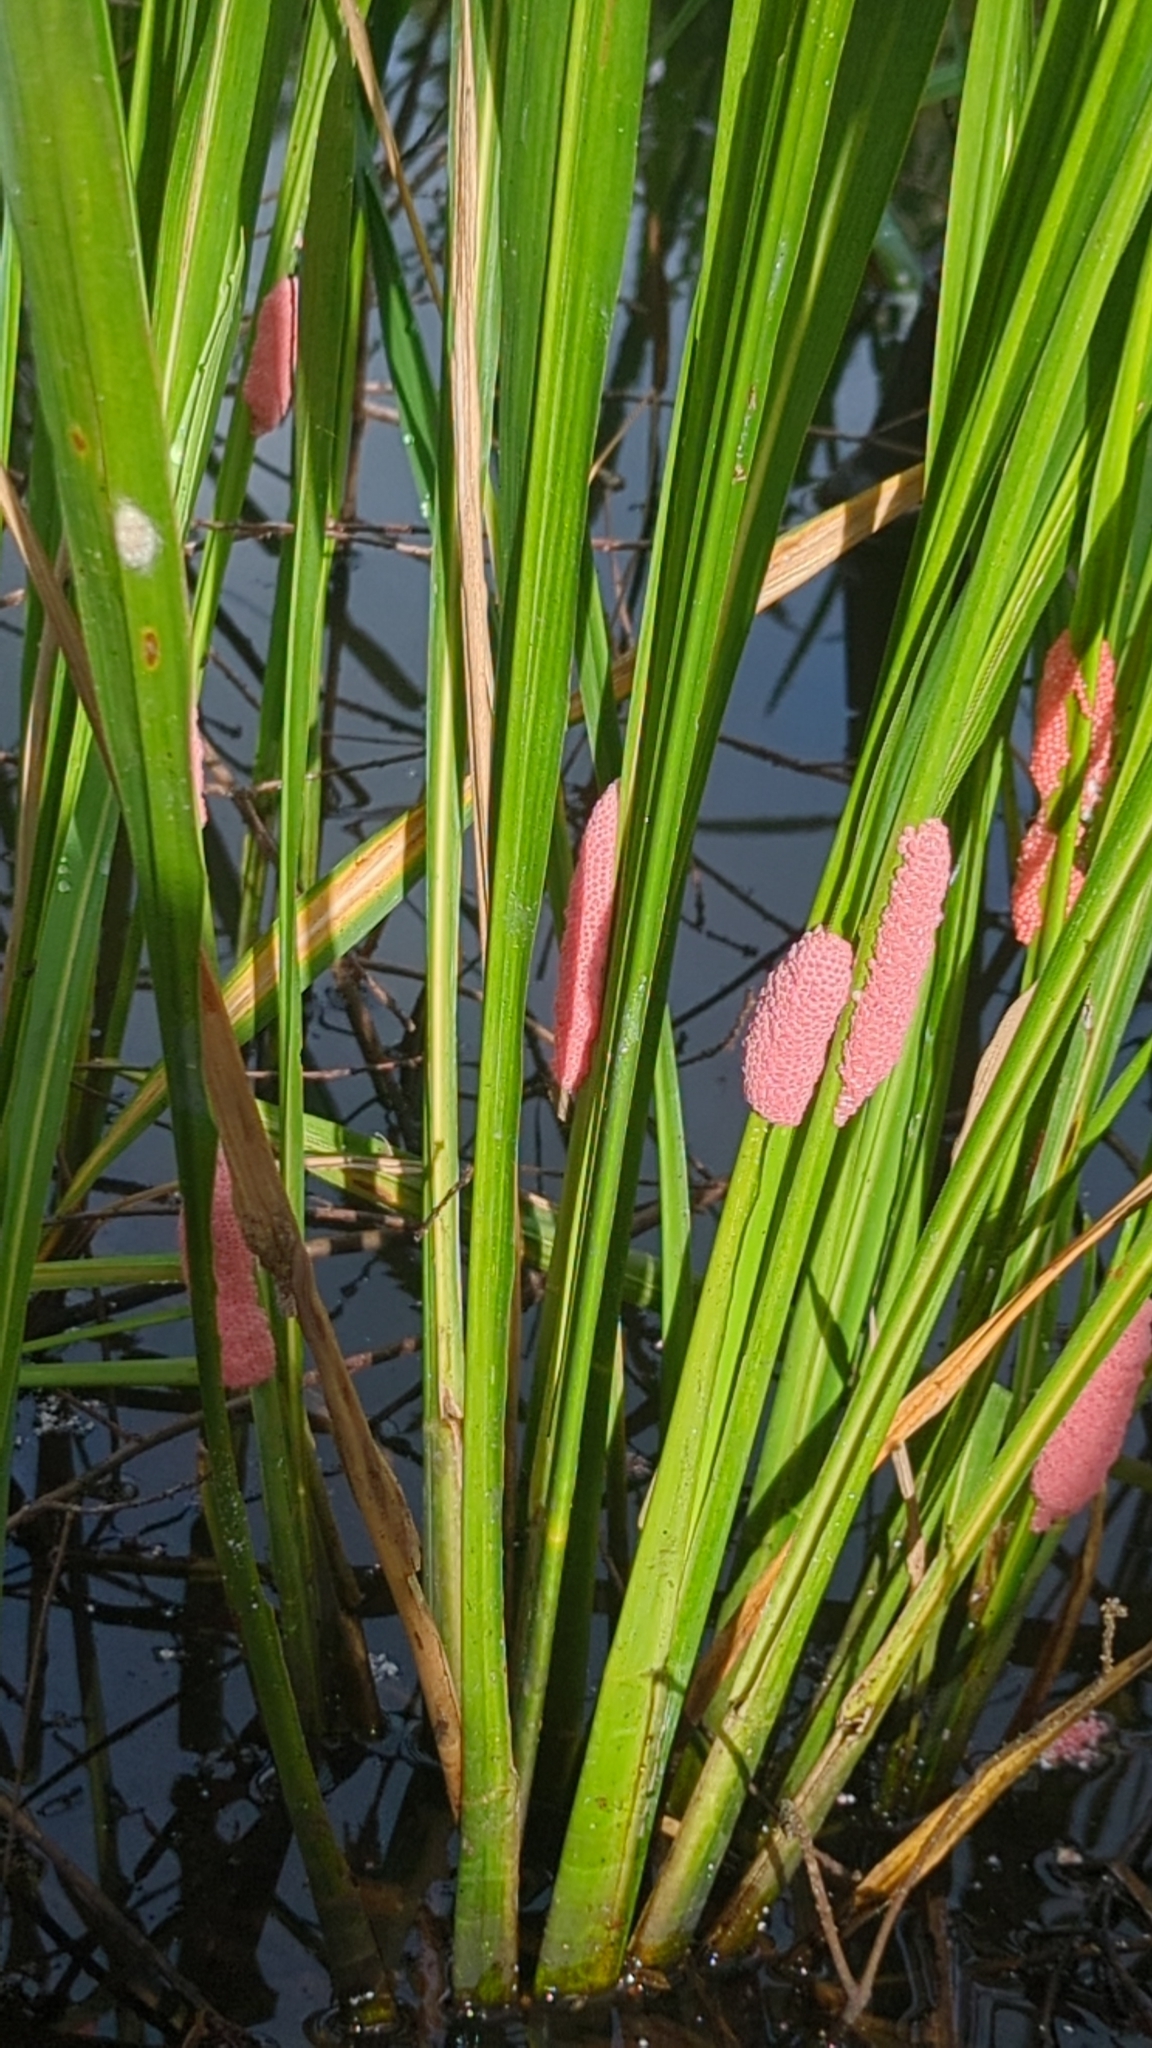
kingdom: Animalia
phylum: Mollusca
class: Gastropoda
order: Architaenioglossa
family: Ampullariidae
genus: Pomacea
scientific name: Pomacea maculata
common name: Giant applesnail
